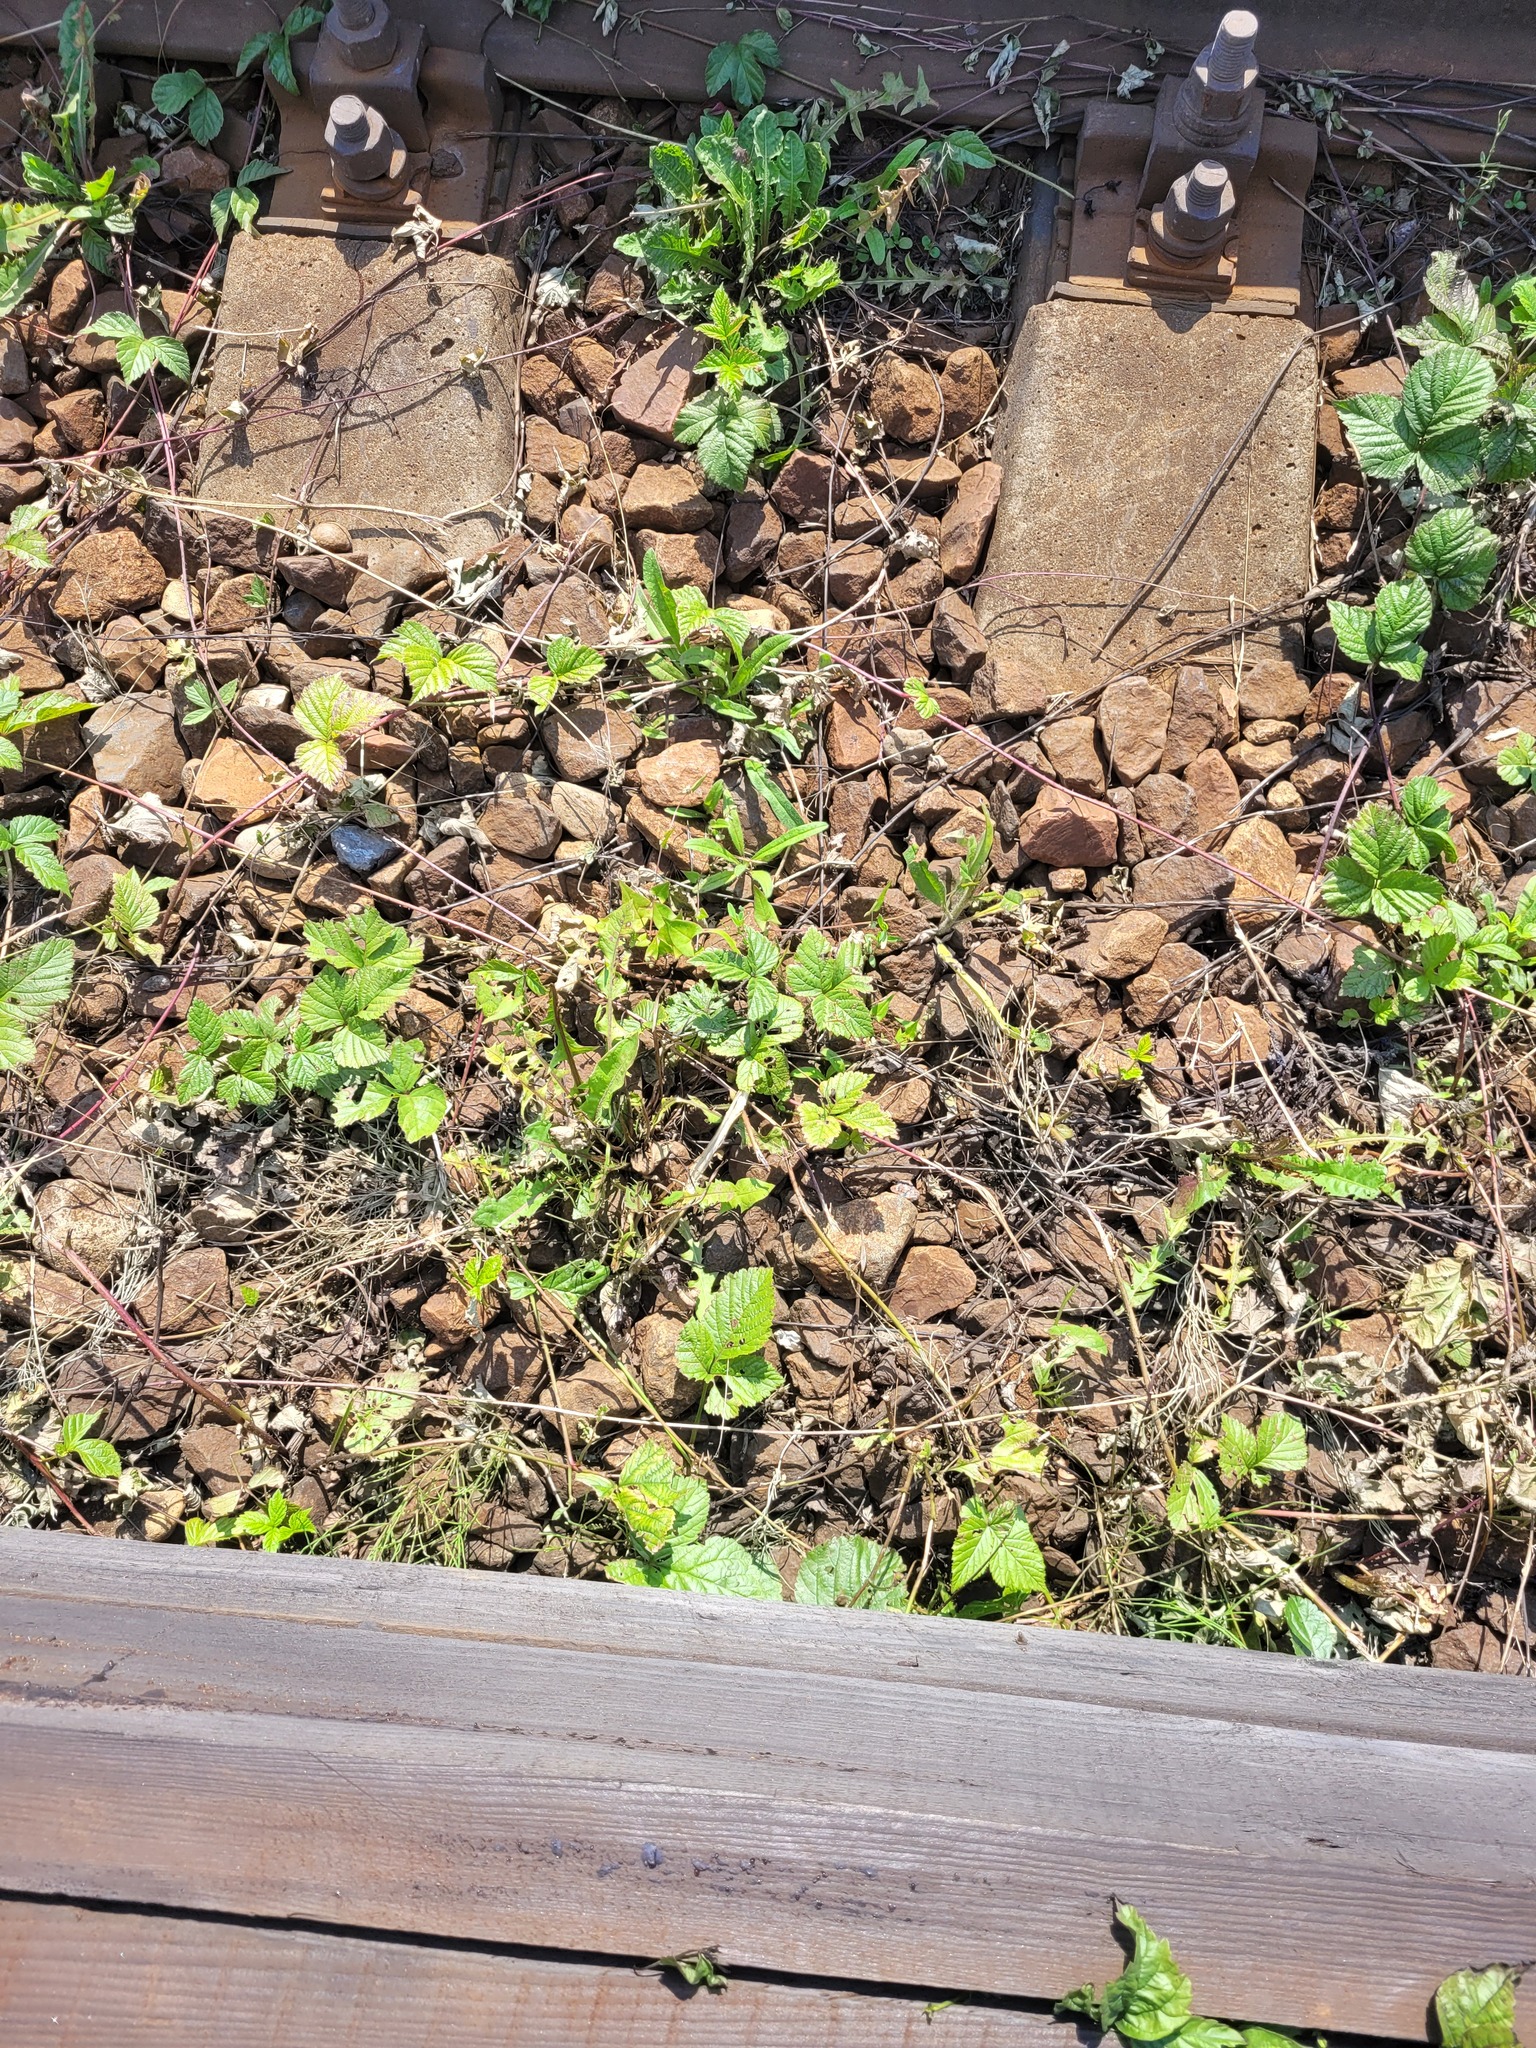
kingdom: Plantae
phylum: Tracheophyta
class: Magnoliopsida
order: Rosales
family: Rosaceae
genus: Rubus
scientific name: Rubus saxatilis
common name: Stone bramble
